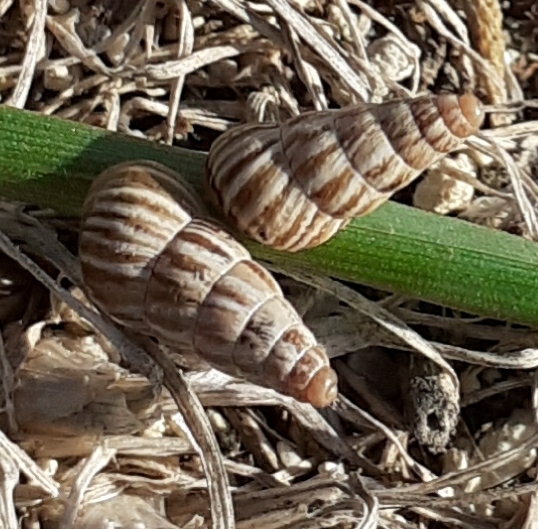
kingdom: Animalia
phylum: Mollusca
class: Gastropoda
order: Stylommatophora
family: Geomitridae
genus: Cochlicella
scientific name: Cochlicella acuta
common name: Pointed snail
